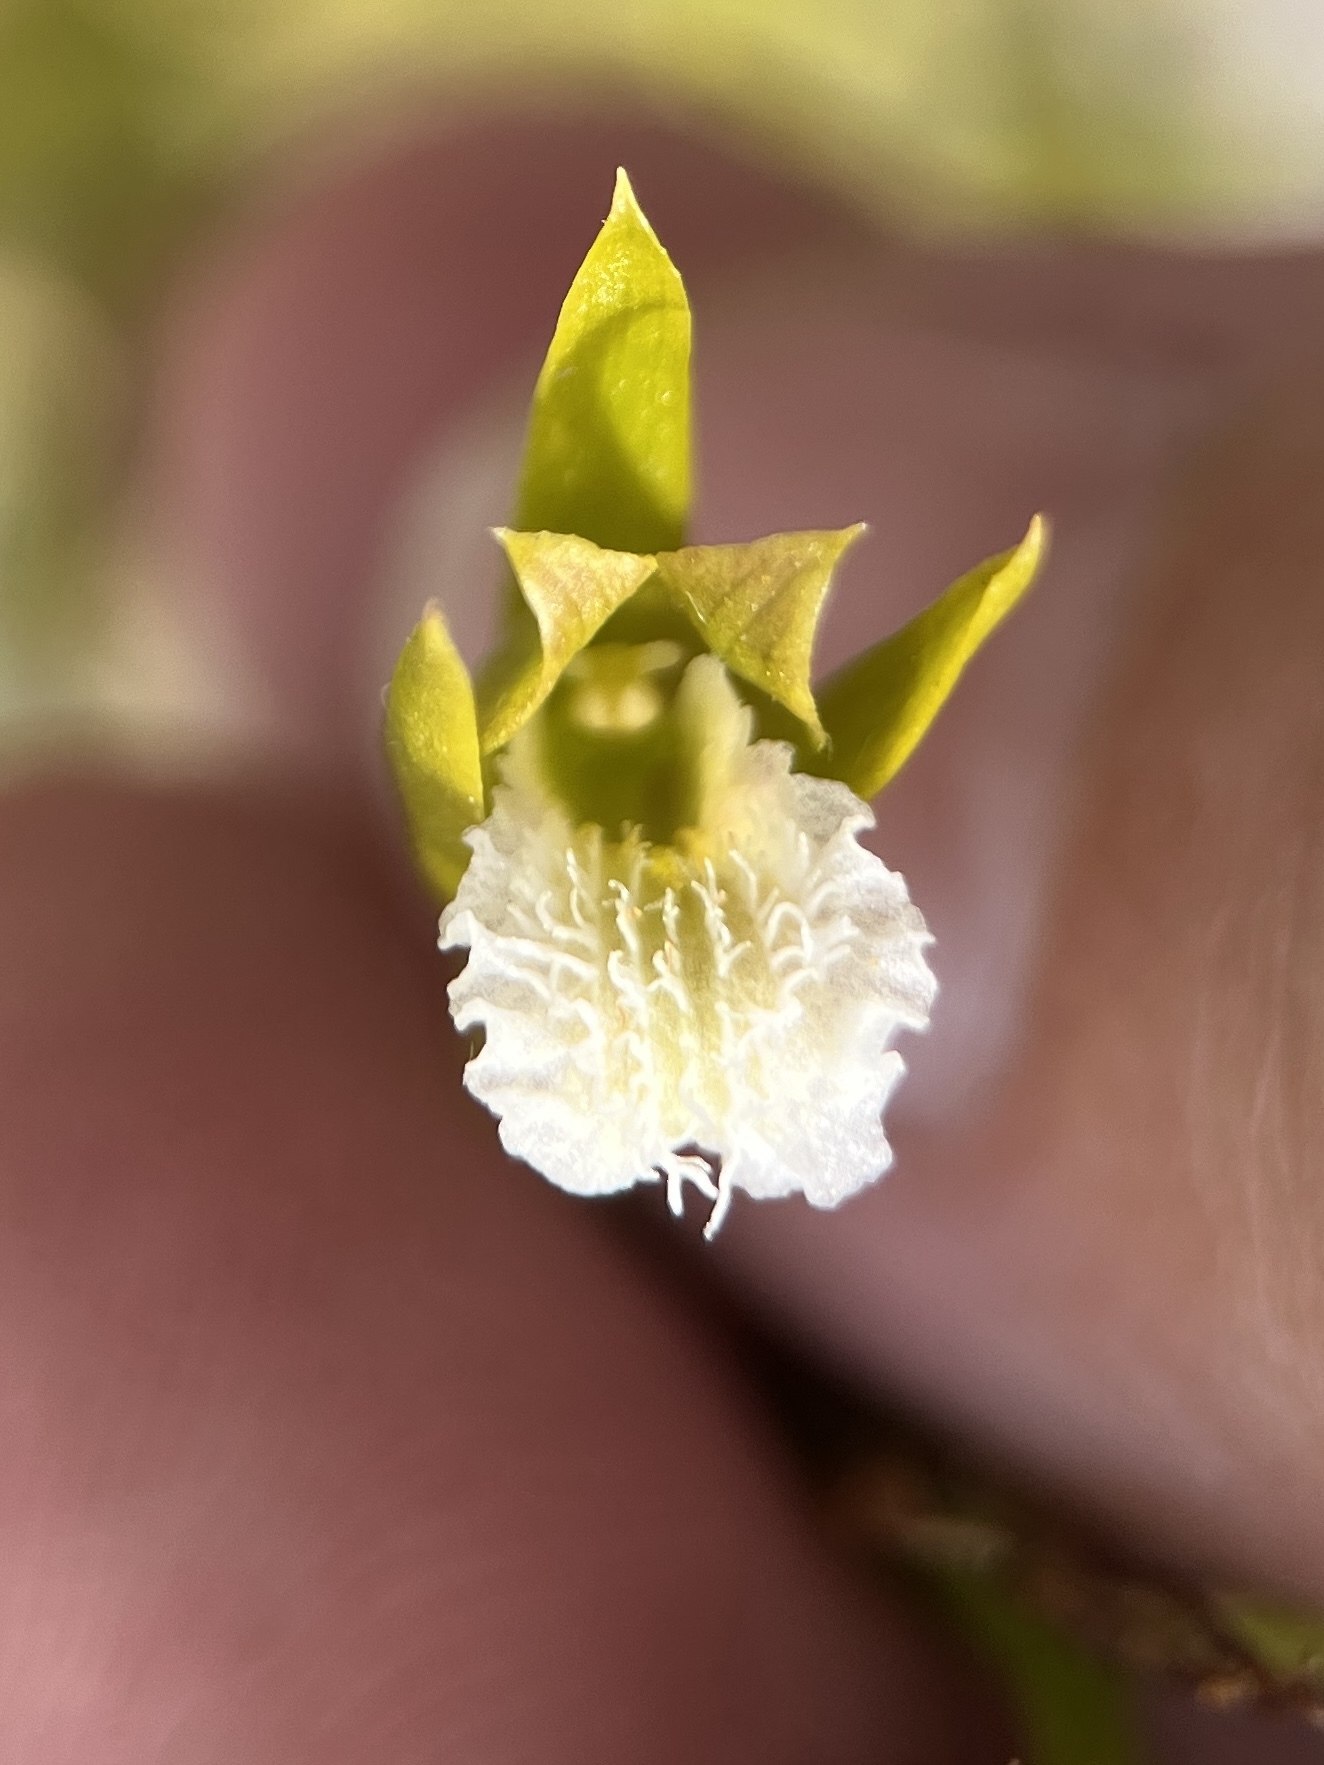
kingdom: Plantae
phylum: Tracheophyta
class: Liliopsida
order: Asparagales
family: Orchidaceae
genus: Eulophia
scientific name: Eulophia tristis
